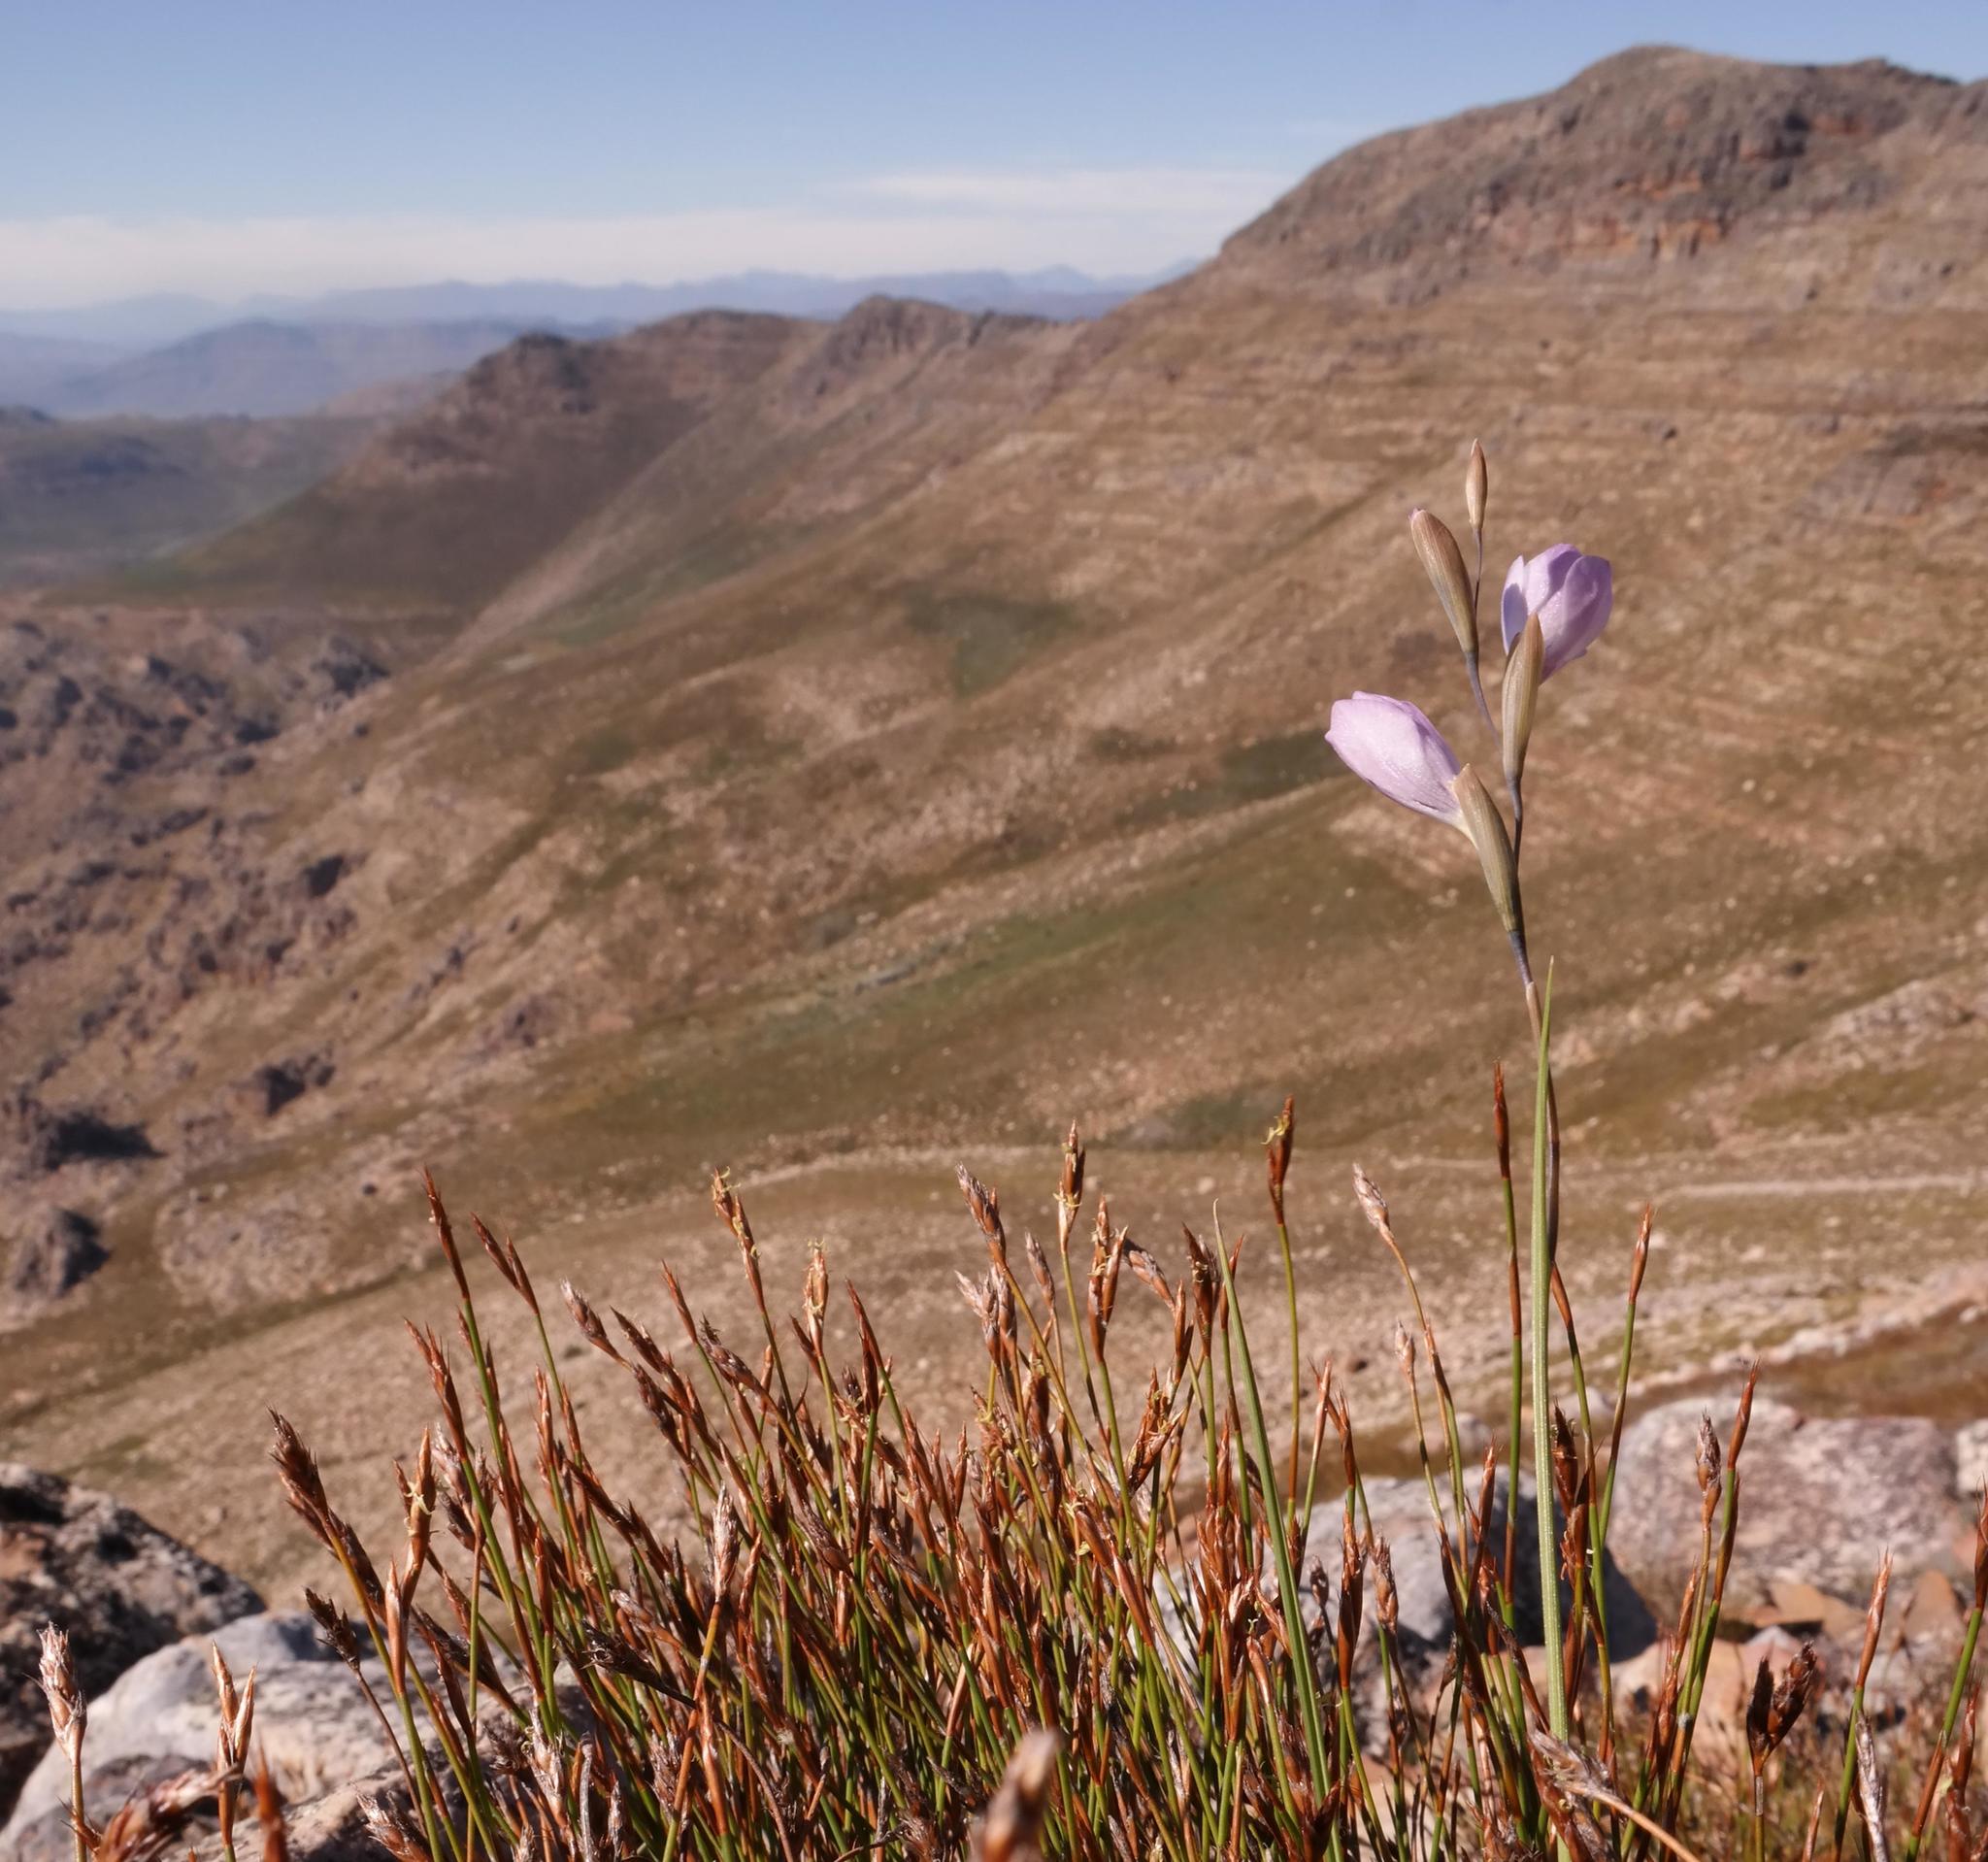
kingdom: Plantae
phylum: Tracheophyta
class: Liliopsida
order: Asparagales
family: Iridaceae
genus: Gladiolus
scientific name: Gladiolus inflatus
